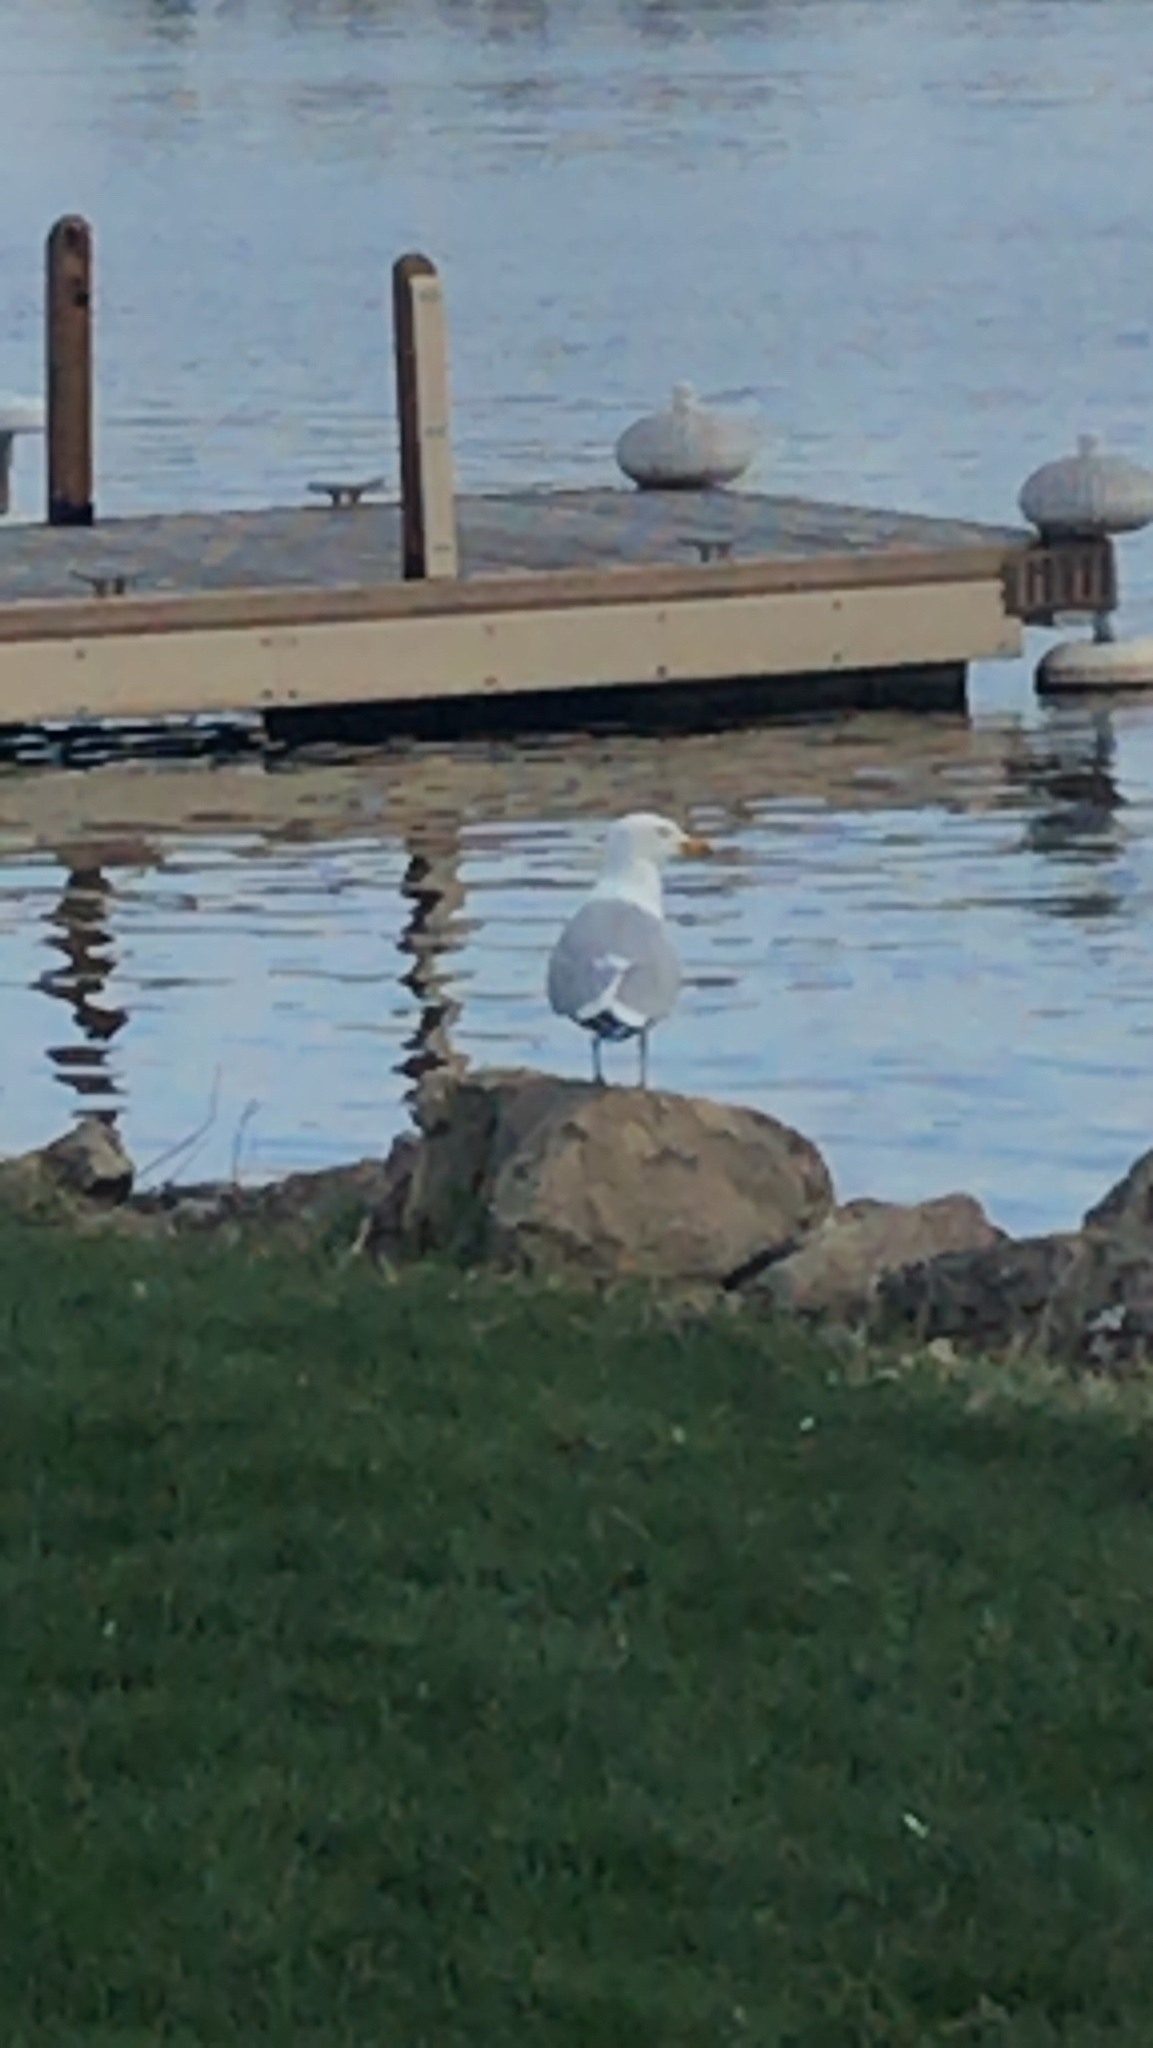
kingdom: Animalia
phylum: Chordata
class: Aves
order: Charadriiformes
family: Laridae
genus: Larus
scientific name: Larus argentatus
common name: Herring gull
